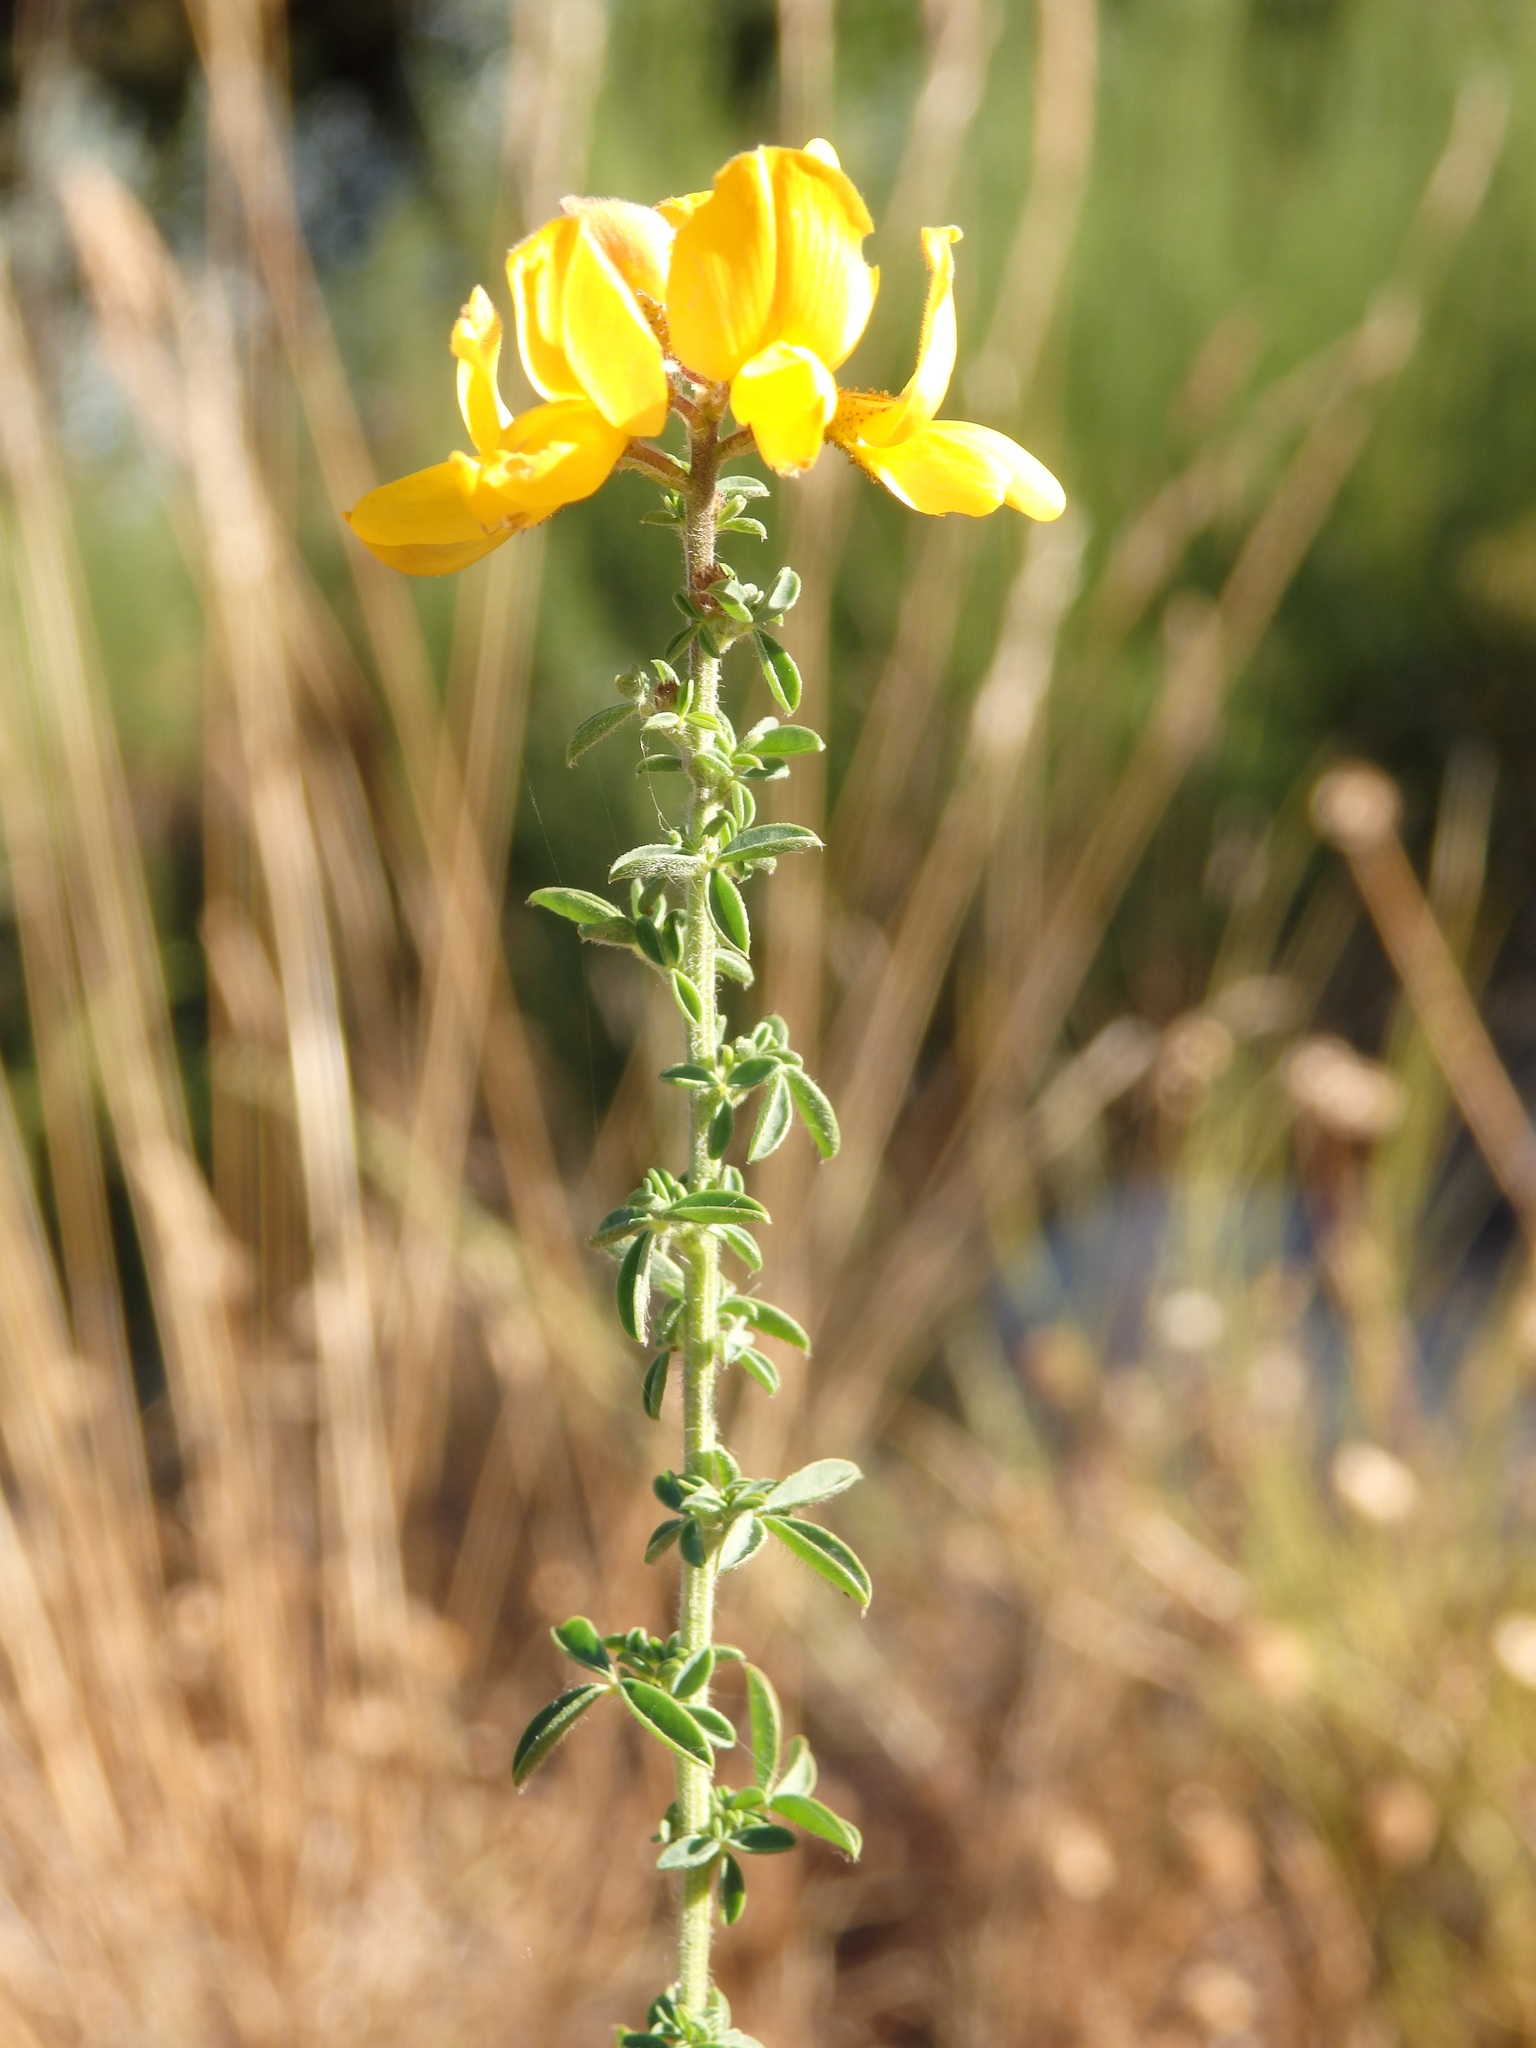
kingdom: Plantae
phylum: Tracheophyta
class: Magnoliopsida
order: Fabales
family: Fabaceae
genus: Adenocarpus
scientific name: Adenocarpus complicatus
